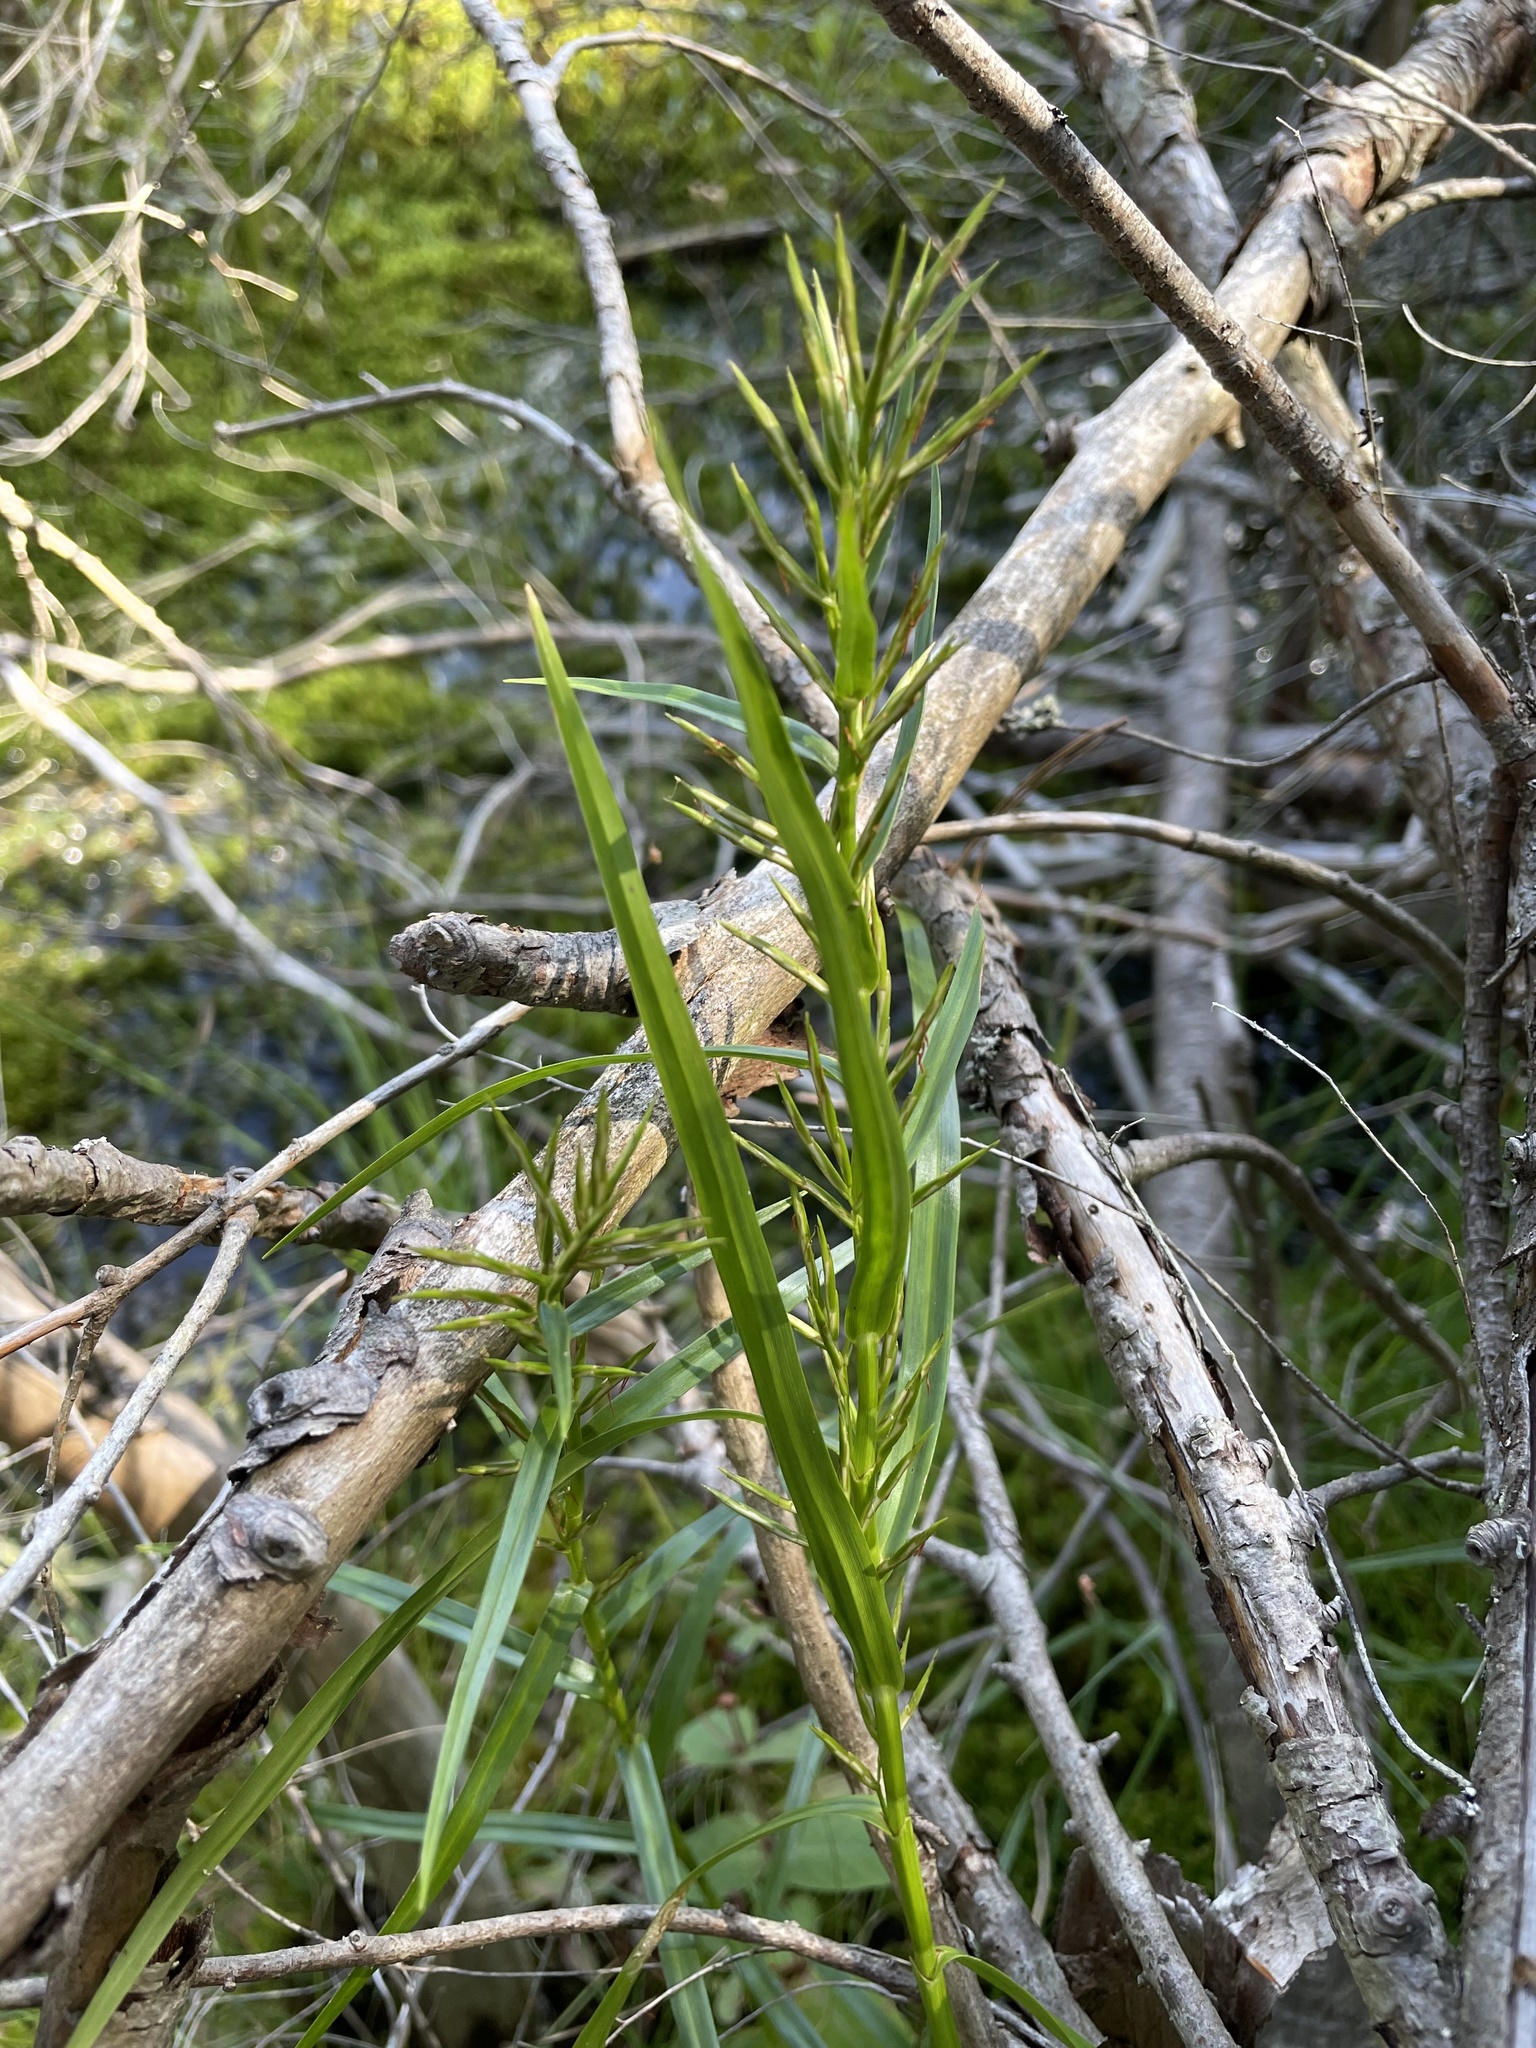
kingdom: Plantae
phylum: Tracheophyta
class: Liliopsida
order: Poales
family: Cyperaceae
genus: Dulichium
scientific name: Dulichium arundinaceum
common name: Three-way sedge
